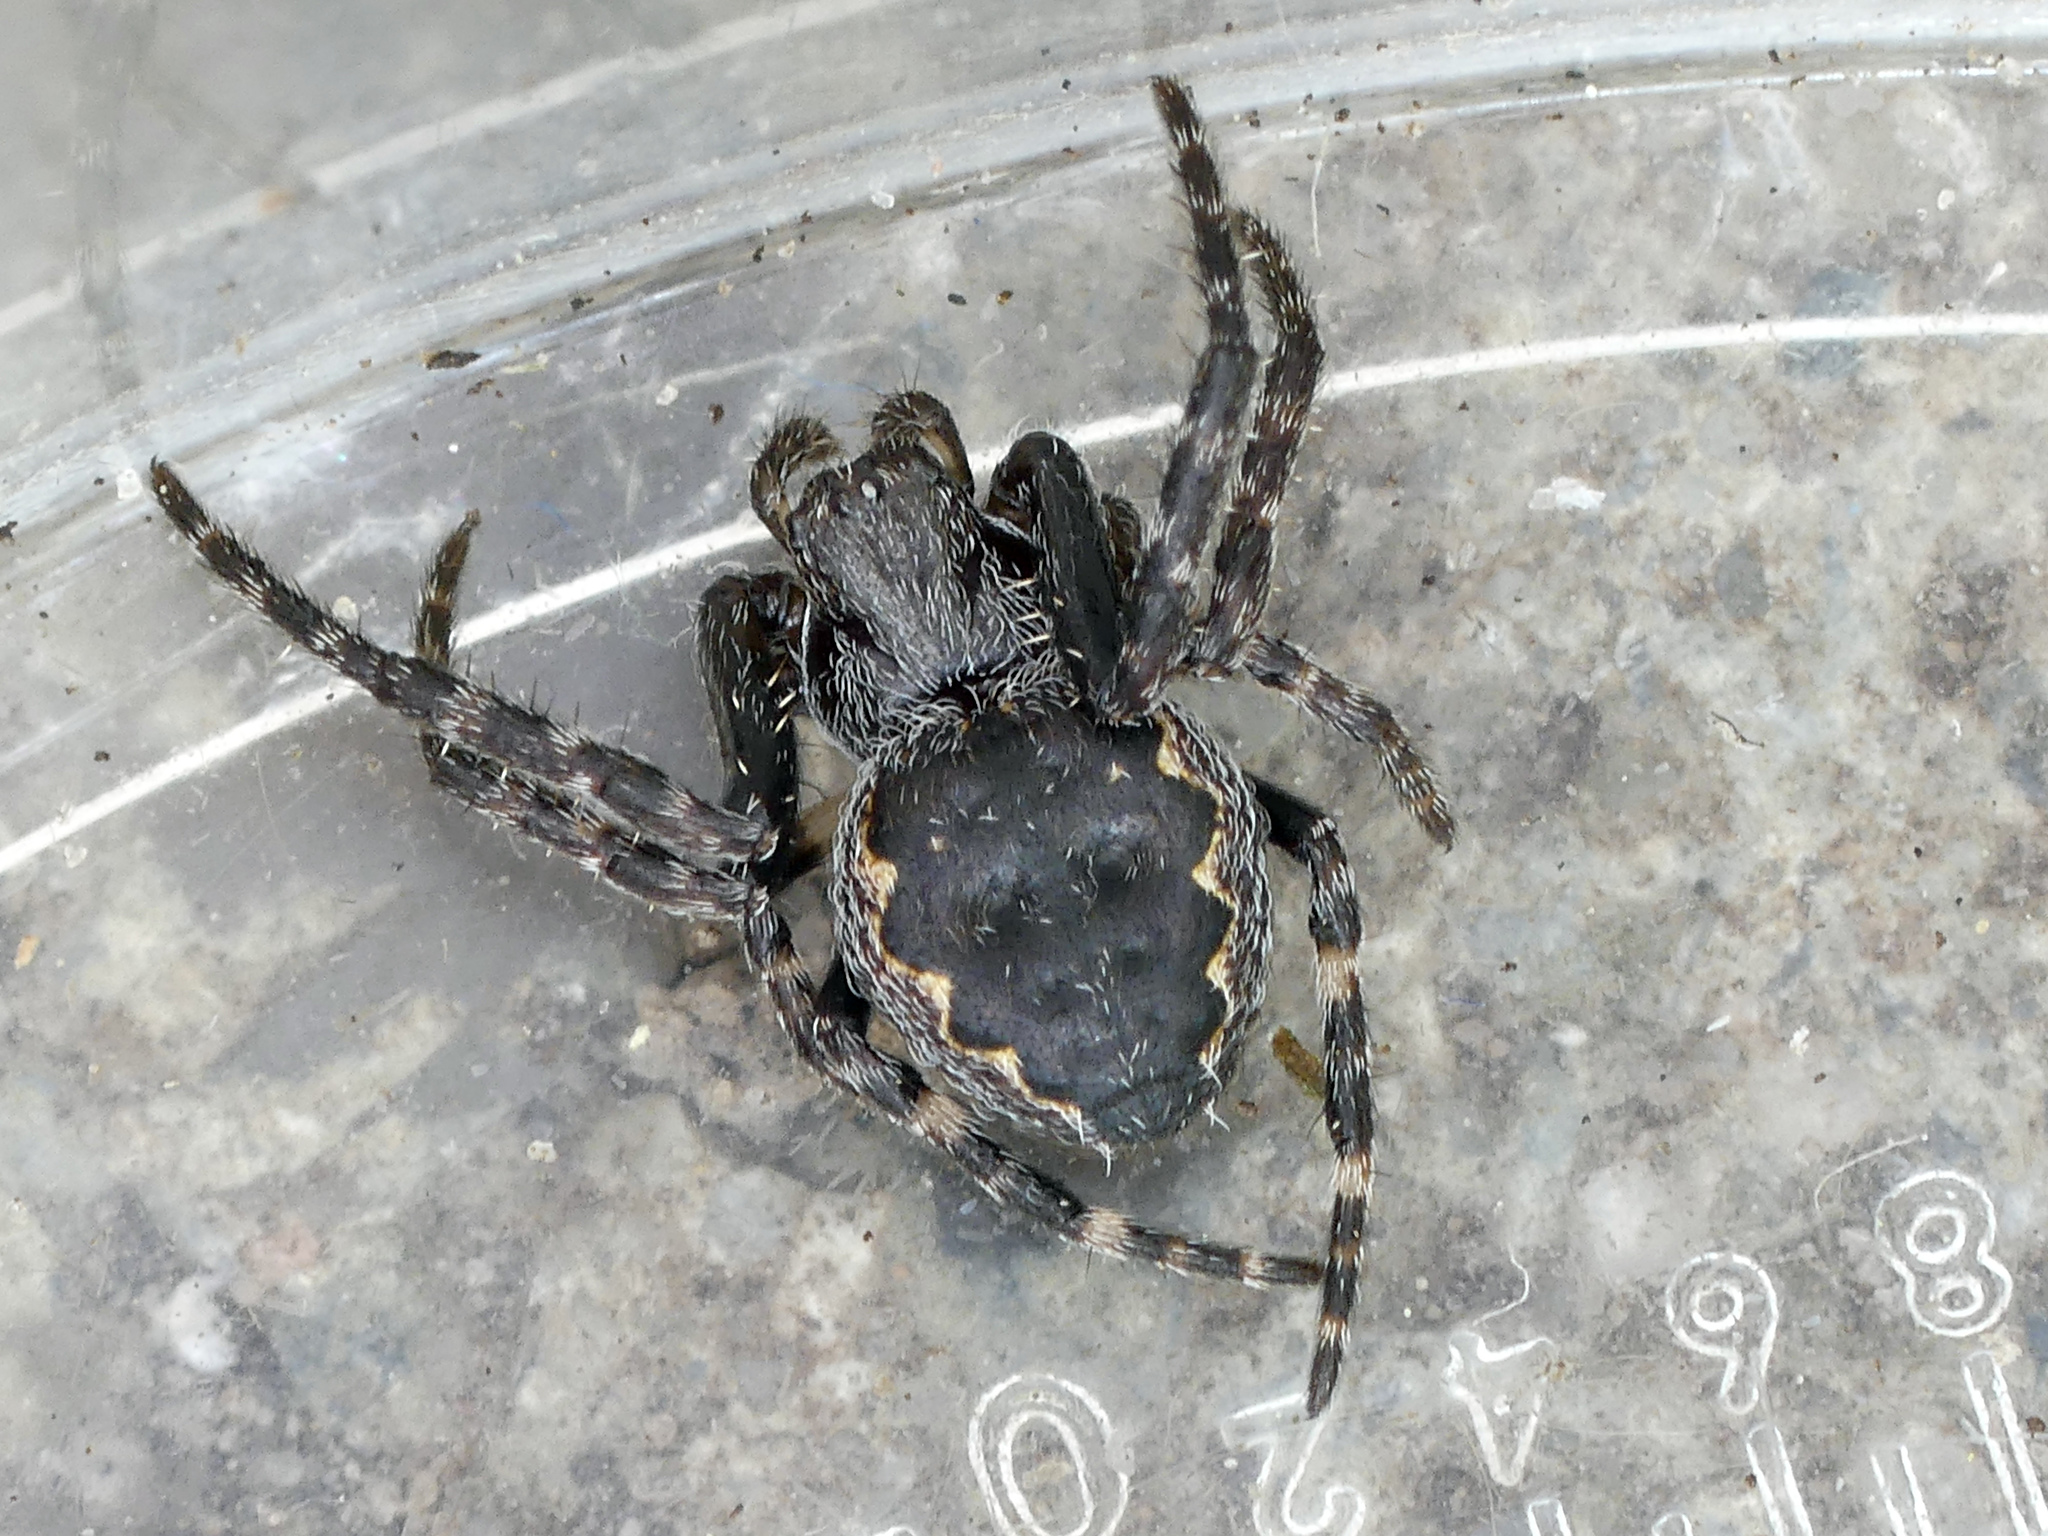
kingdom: Animalia
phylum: Arthropoda
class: Arachnida
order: Araneae
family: Araneidae
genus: Nuctenea
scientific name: Nuctenea umbratica
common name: Toad spider
